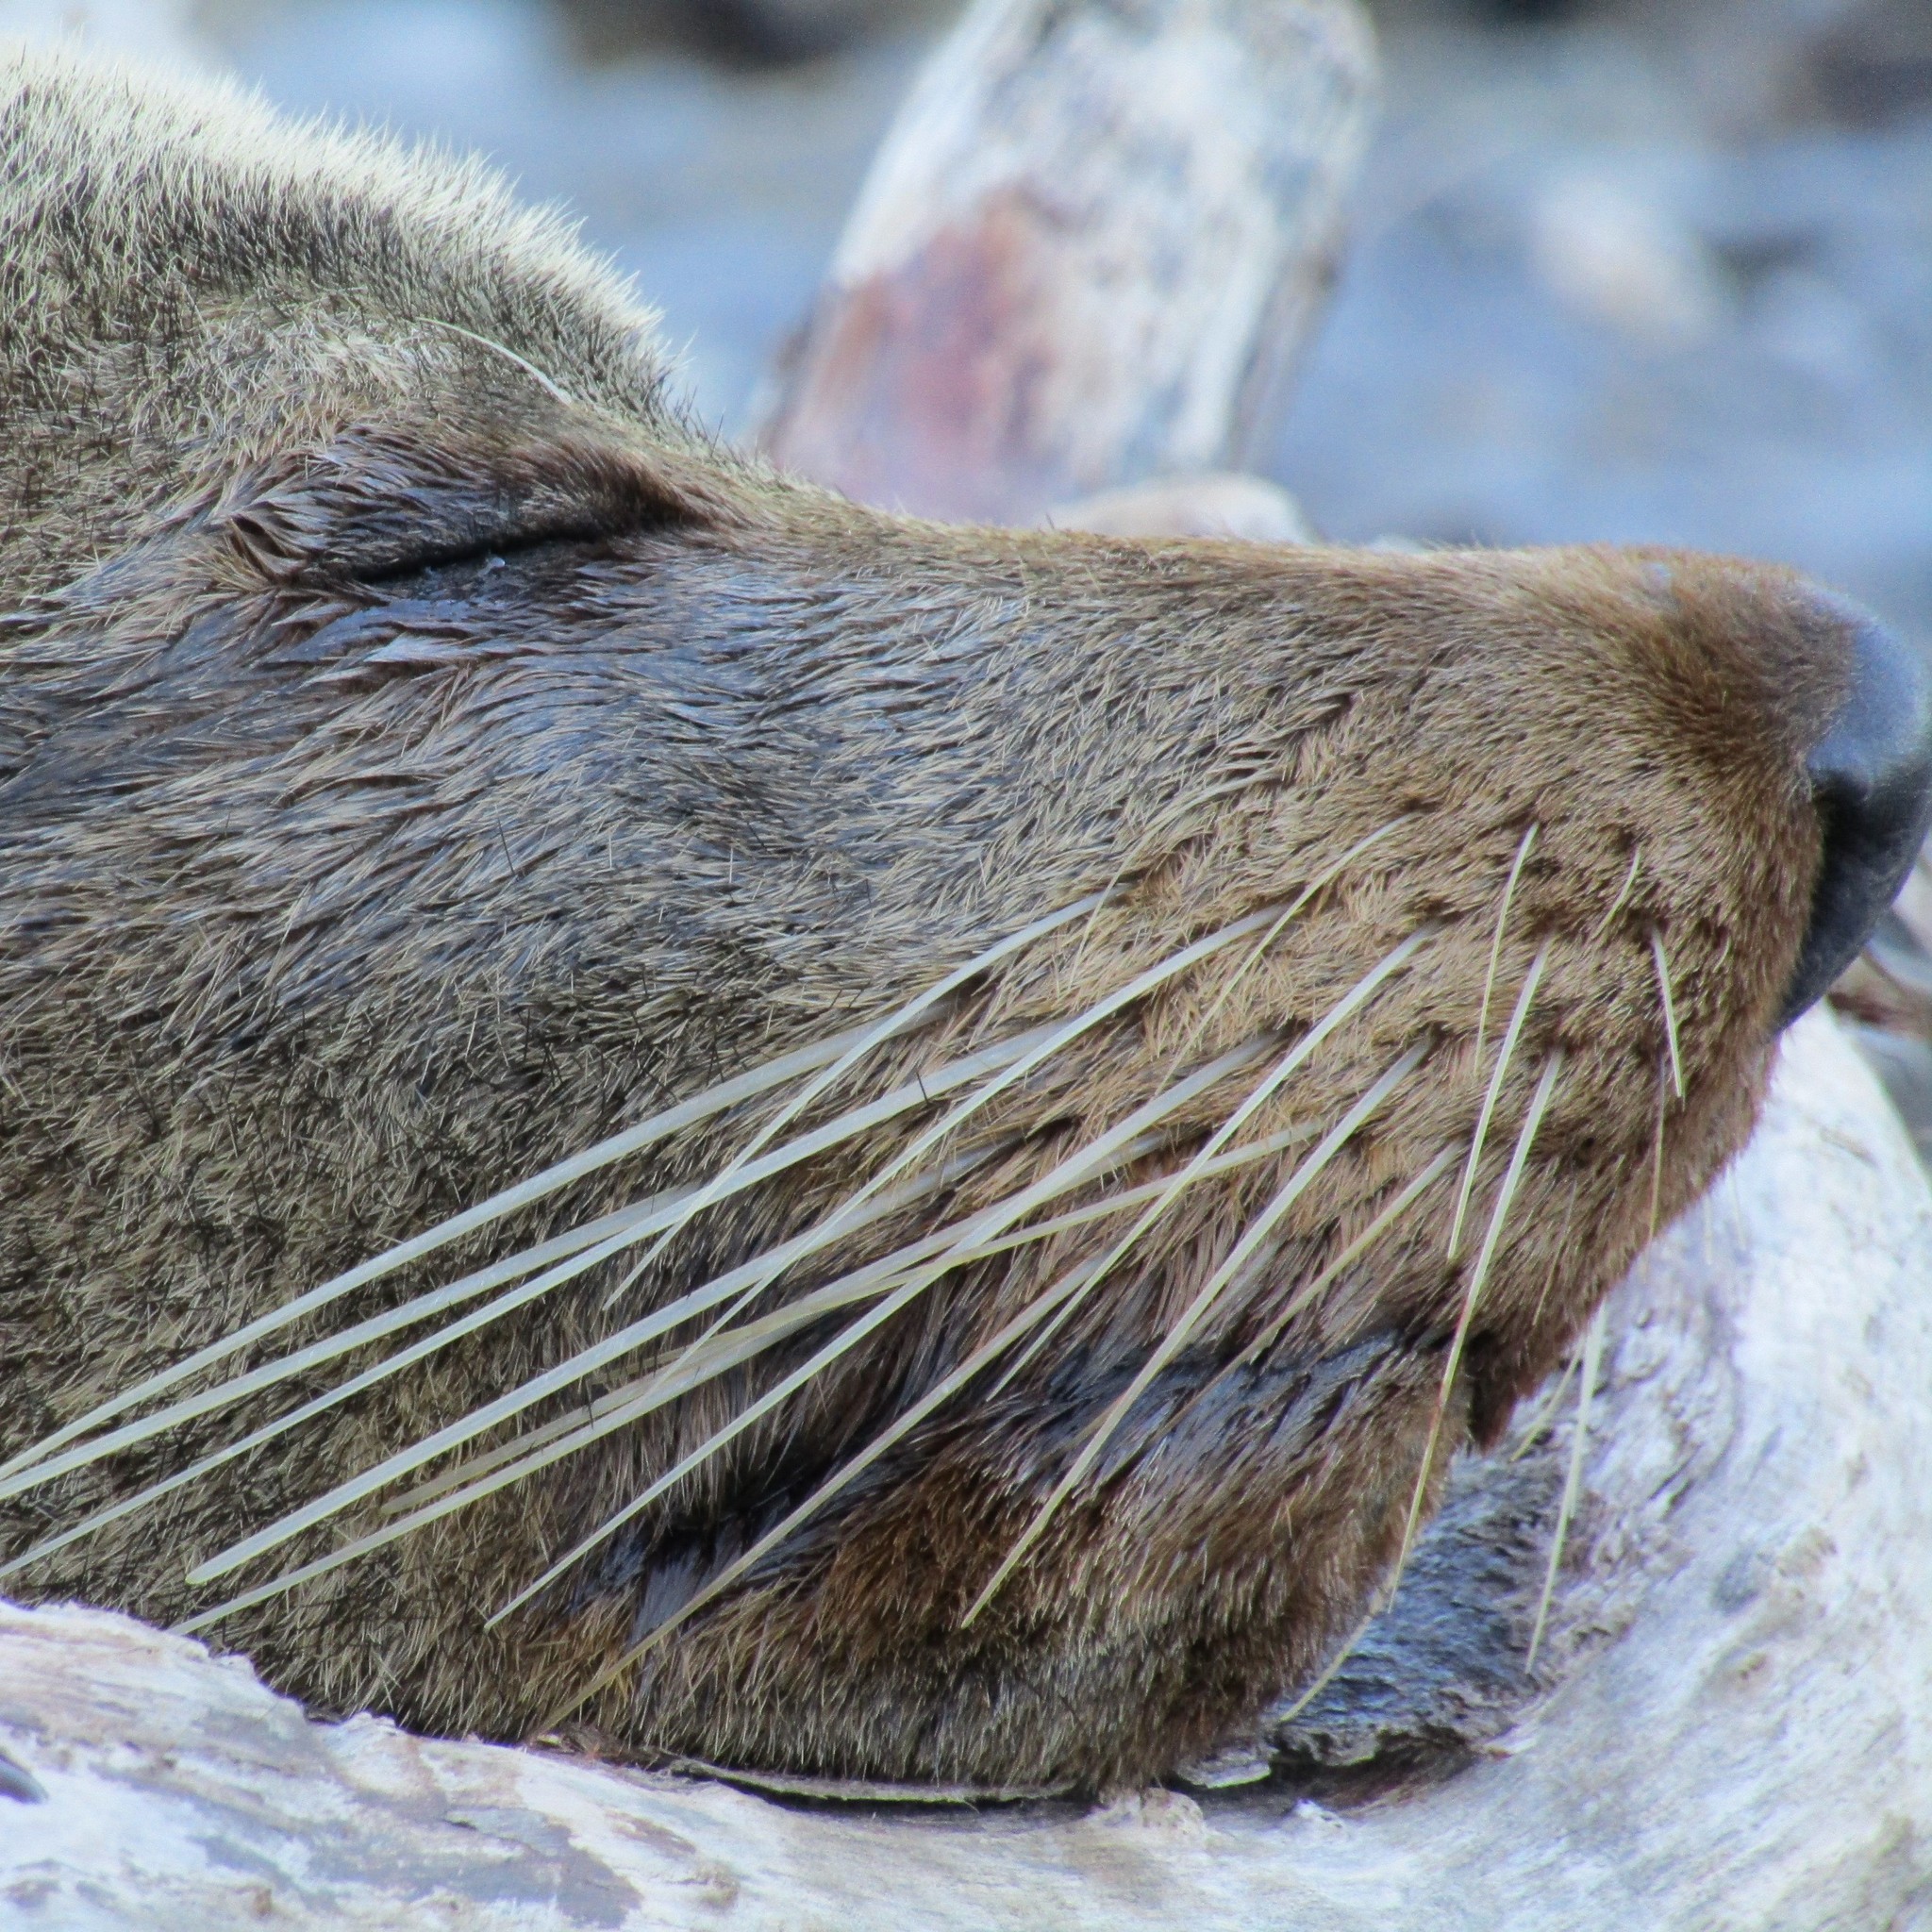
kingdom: Animalia
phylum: Chordata
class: Mammalia
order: Carnivora
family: Otariidae
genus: Arctocephalus
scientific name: Arctocephalus forsteri
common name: New zealand fur seal
